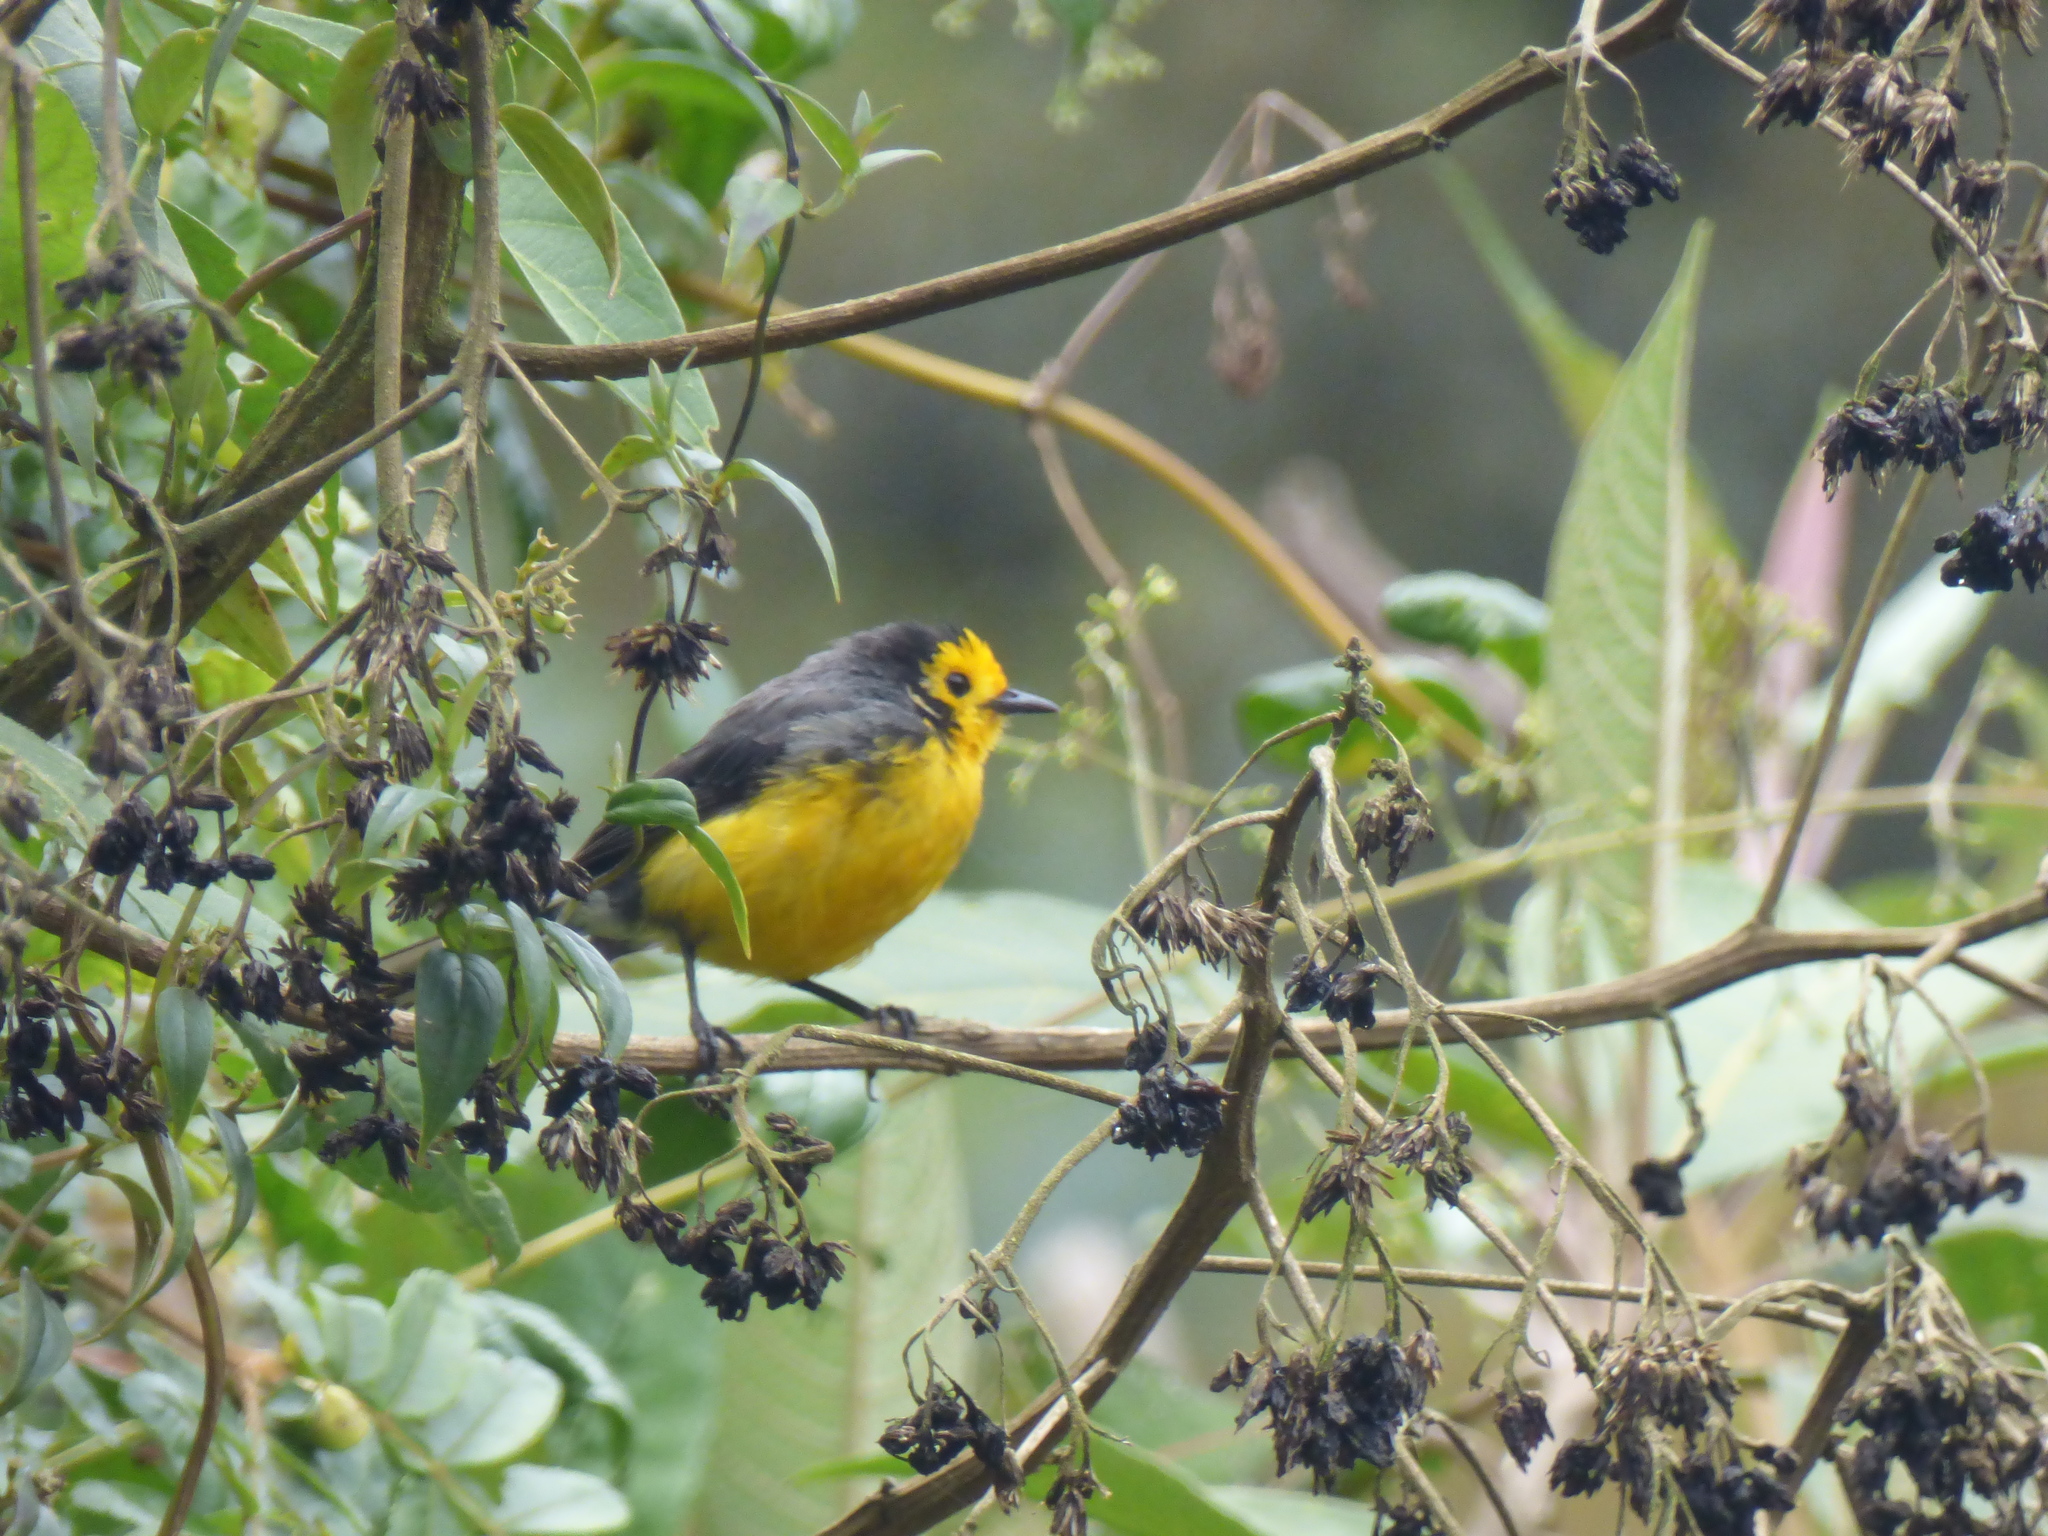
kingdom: Animalia
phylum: Chordata
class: Aves
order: Passeriformes
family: Parulidae
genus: Myioborus
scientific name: Myioborus ornatus
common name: Golden-fronted whitestart
